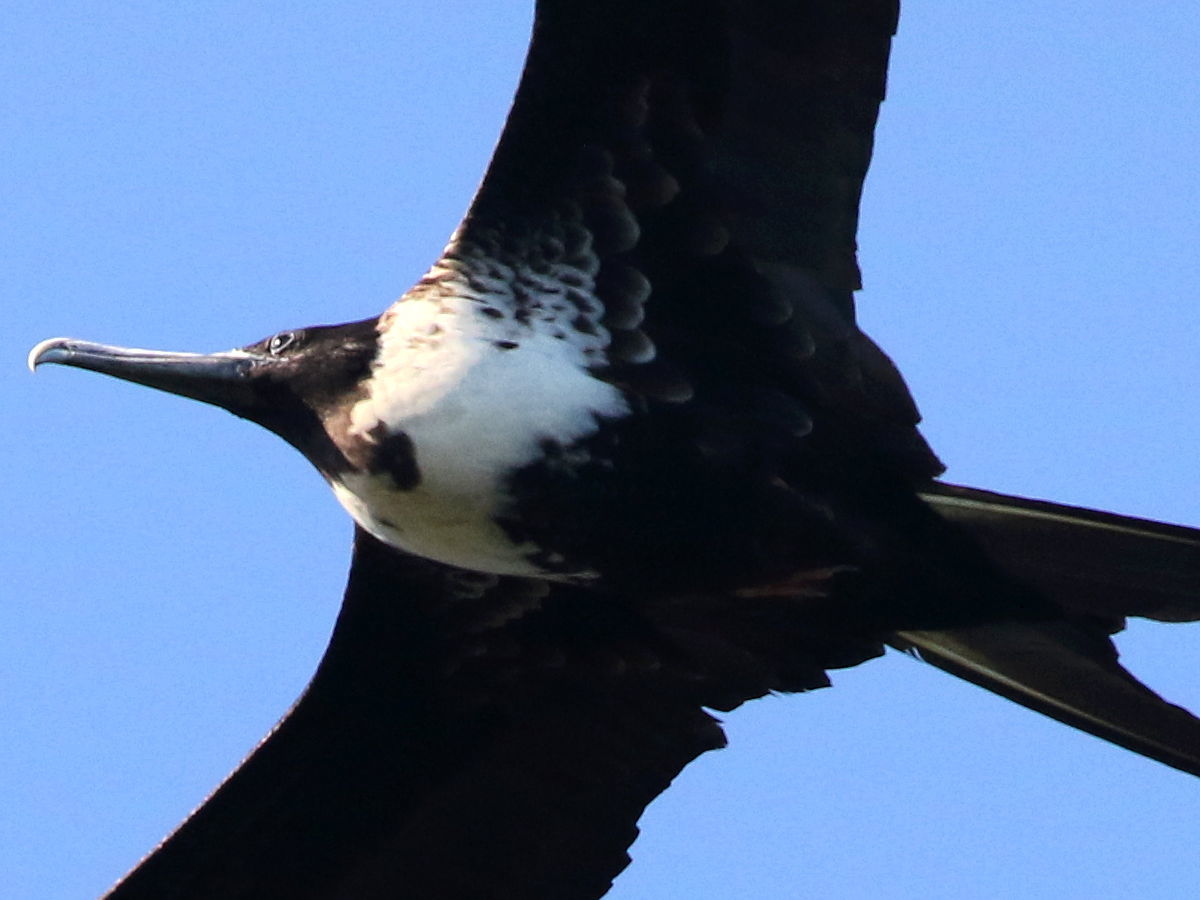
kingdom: Animalia
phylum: Chordata
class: Aves
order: Suliformes
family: Fregatidae
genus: Fregata
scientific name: Fregata magnificens
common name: Magnificent frigatebird
